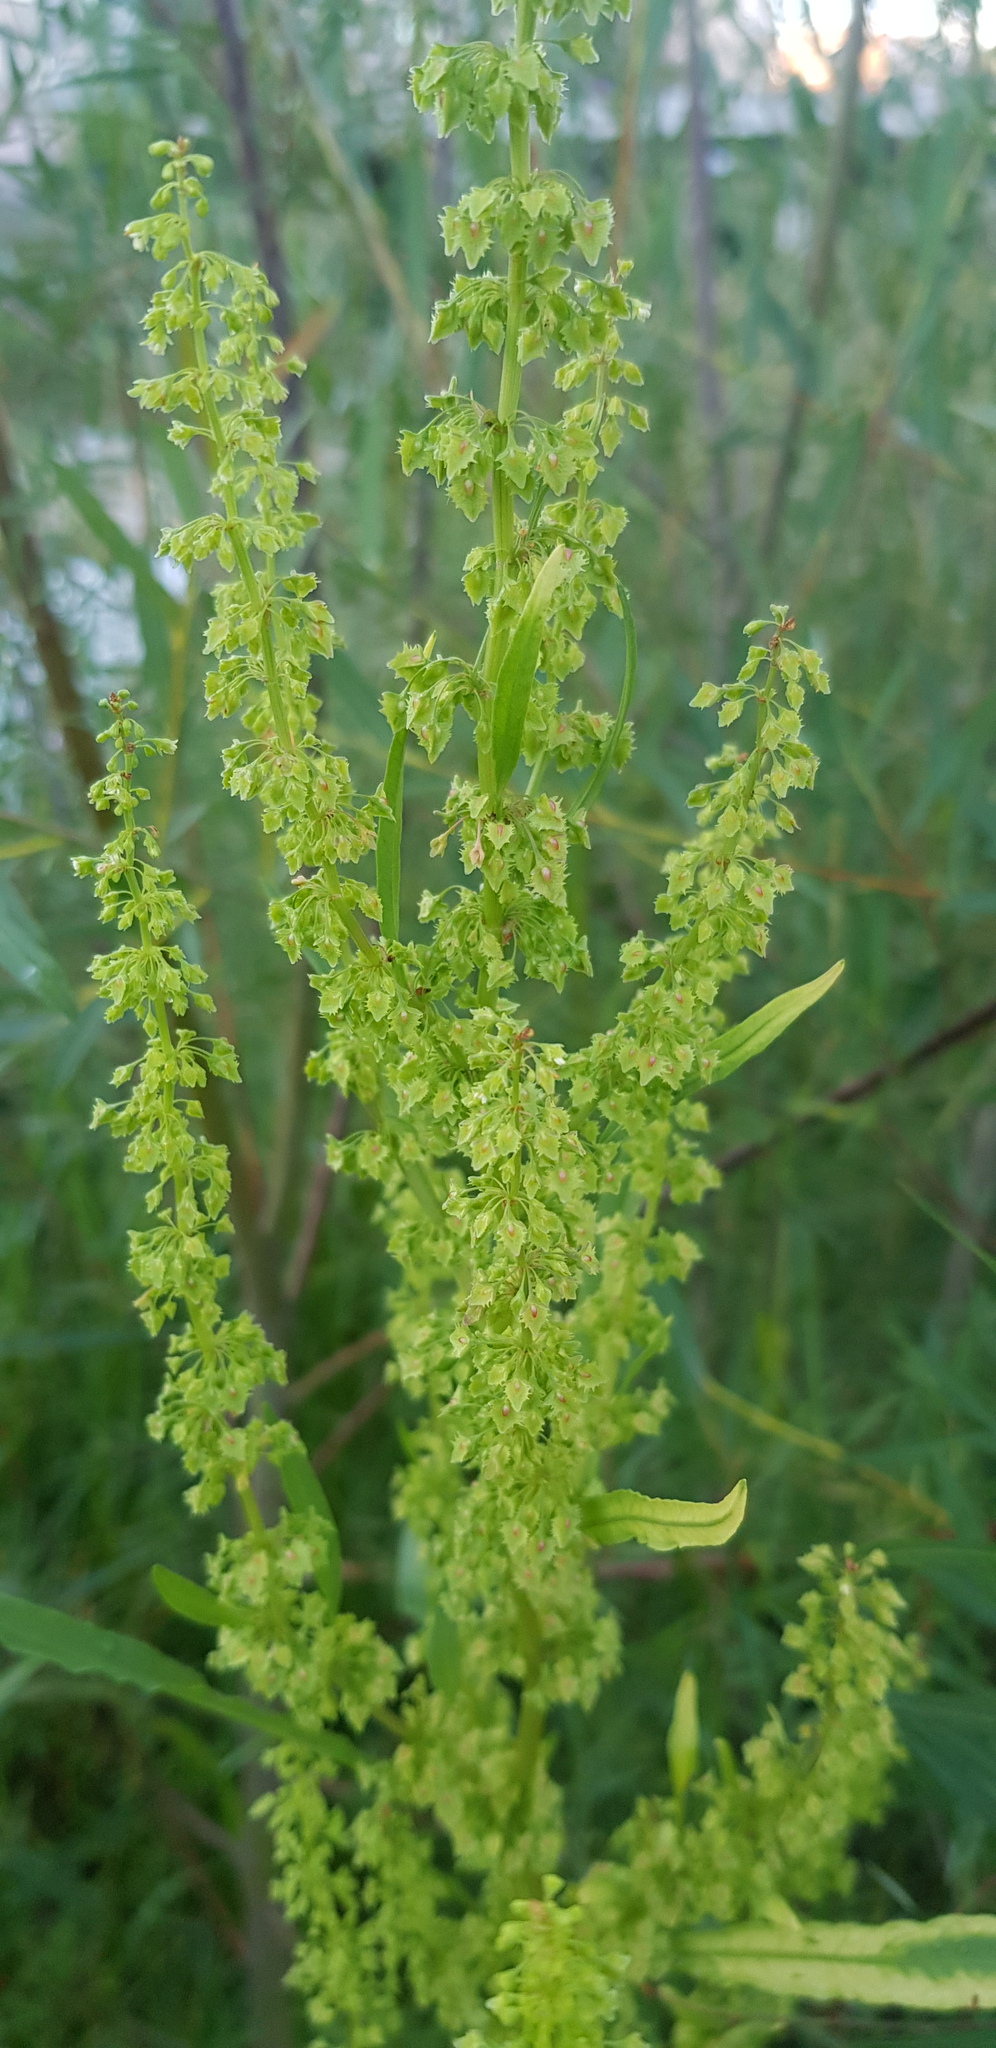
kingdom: Plantae
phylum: Tracheophyta
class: Magnoliopsida
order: Caryophyllales
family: Polygonaceae
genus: Rumex
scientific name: Rumex thyrsiflorus
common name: Garden sorrel
